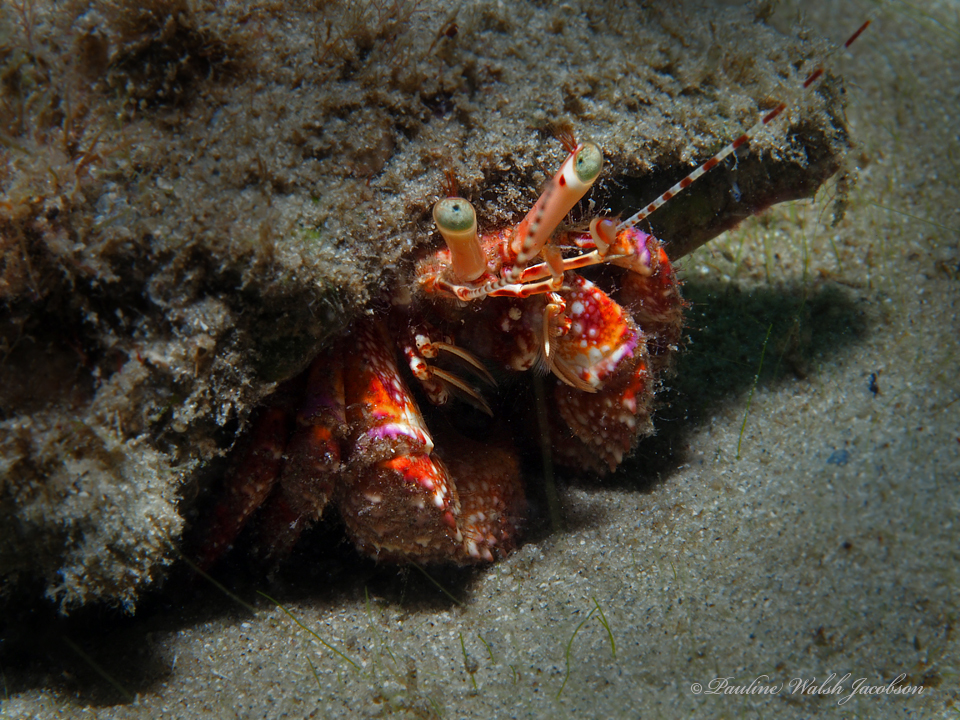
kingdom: Animalia
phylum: Arthropoda
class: Malacostraca
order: Decapoda
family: Diogenidae
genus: Petrochirus
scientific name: Petrochirus diogenes
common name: Giant hermit crab
